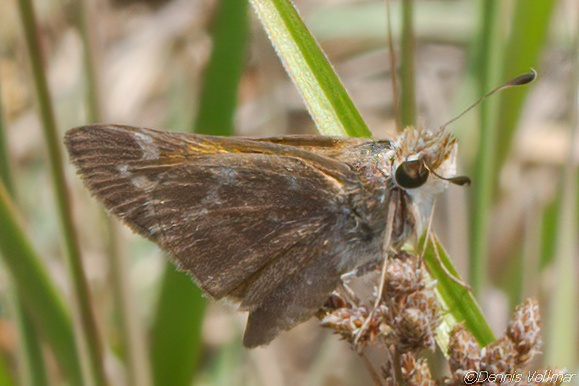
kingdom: Animalia
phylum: Arthropoda
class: Insecta
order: Lepidoptera
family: Hesperiidae
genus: Atalopedes
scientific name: Atalopedes
